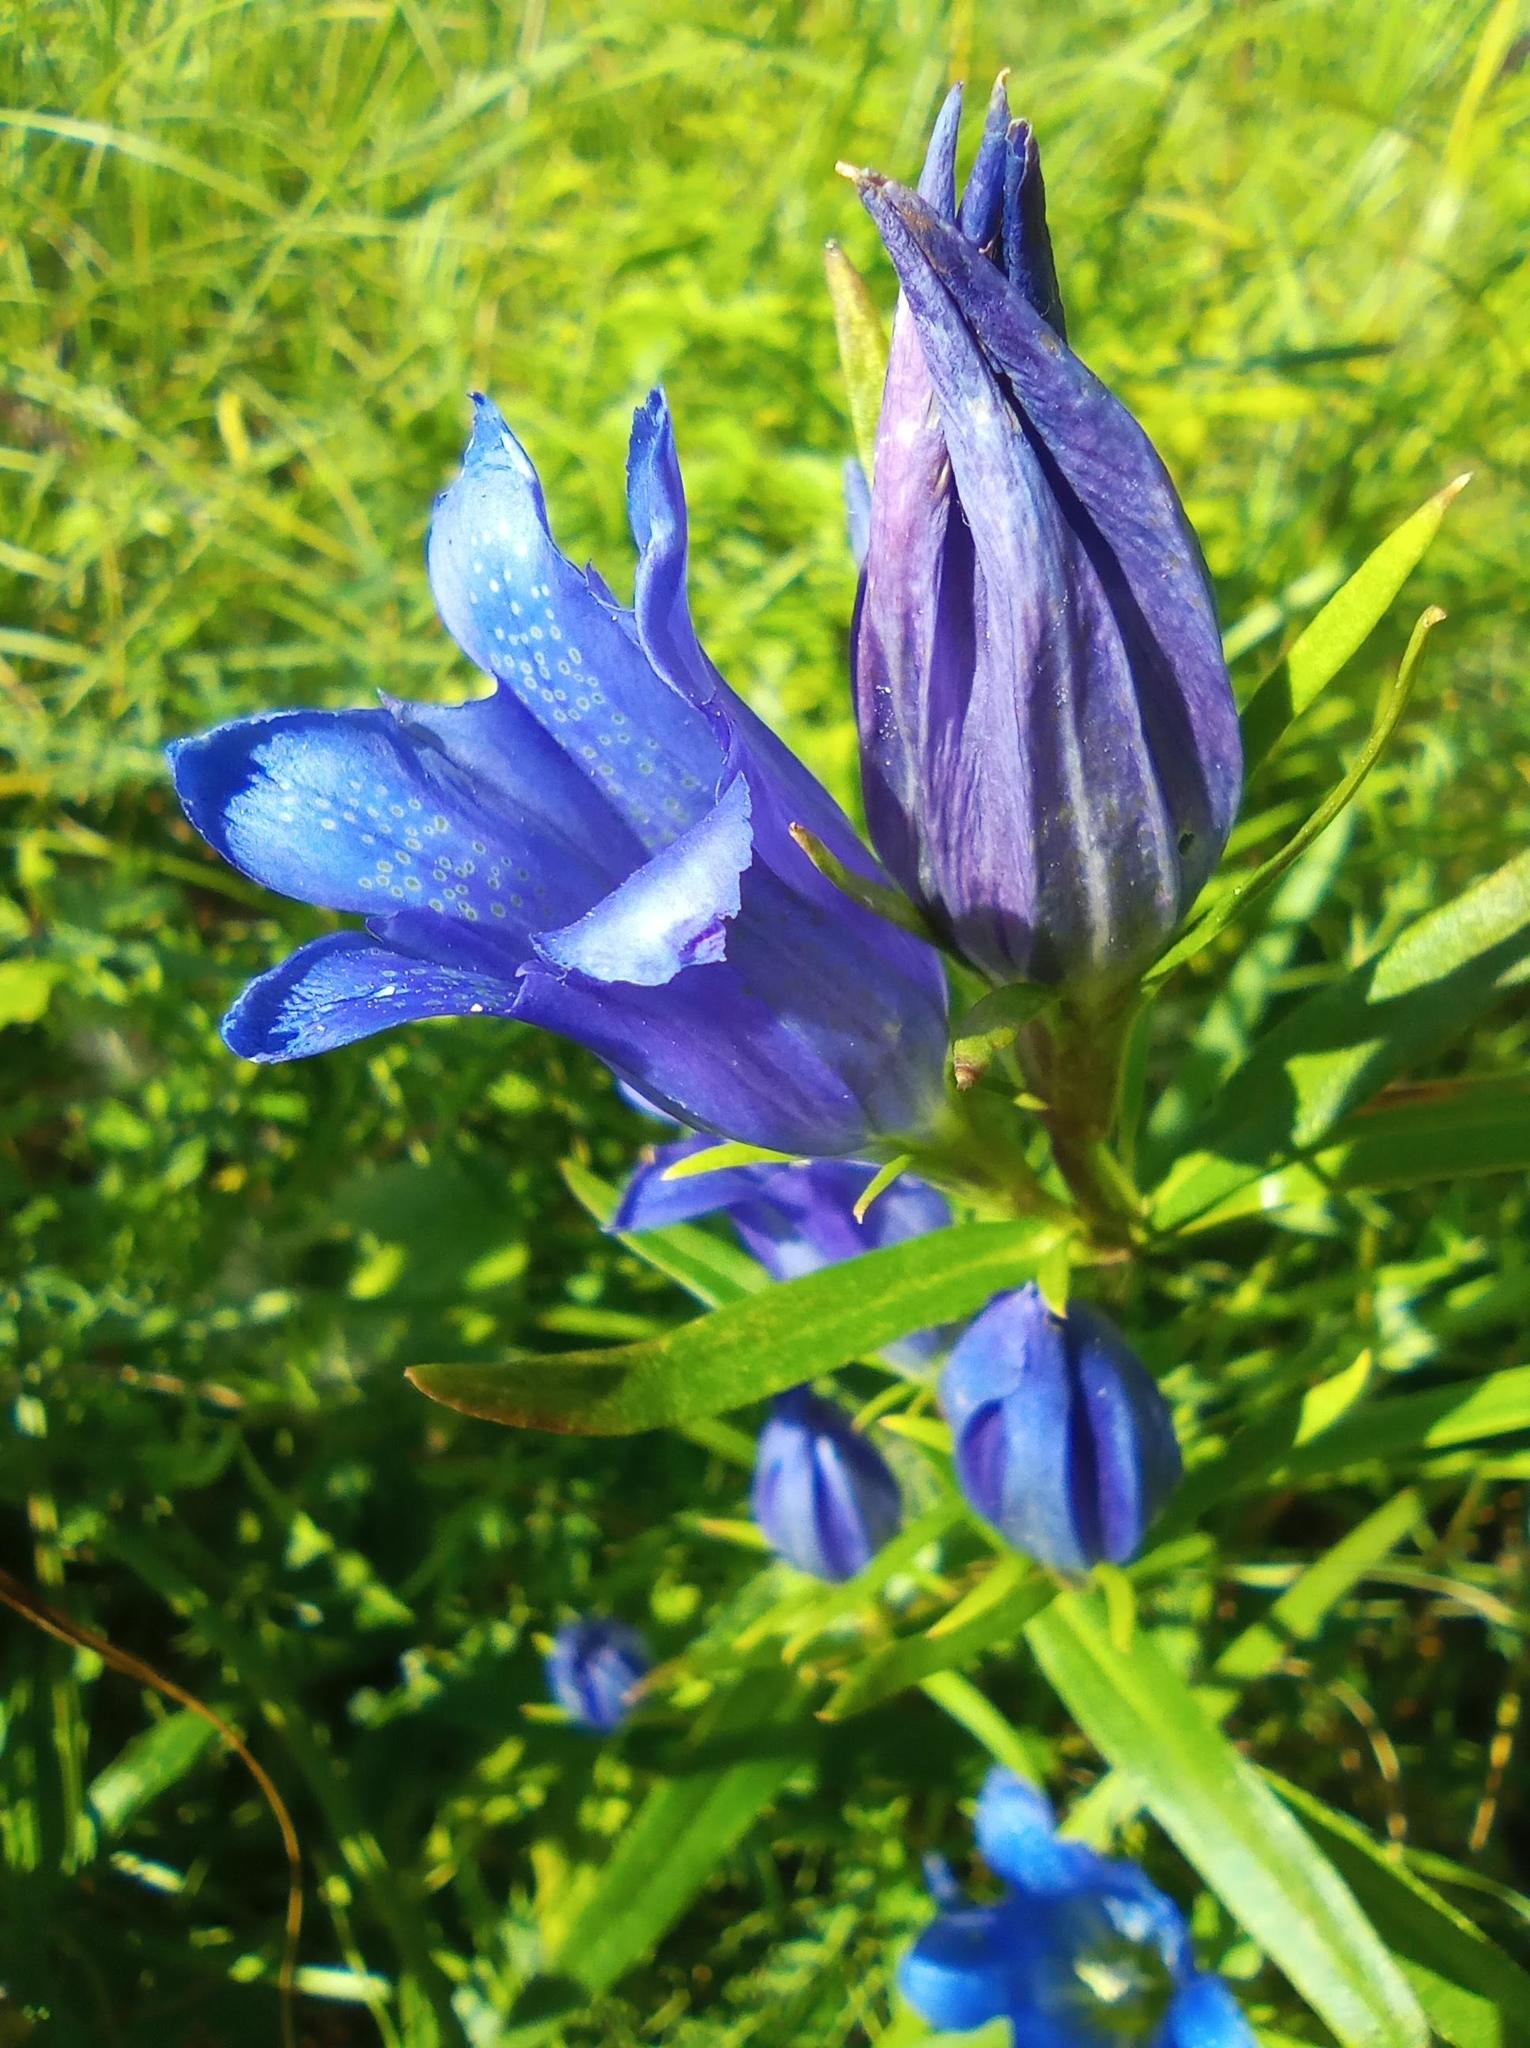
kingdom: Plantae
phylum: Tracheophyta
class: Magnoliopsida
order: Gentianales
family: Gentianaceae
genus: Gentiana
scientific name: Gentiana pneumonanthe
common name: Marsh gentian
